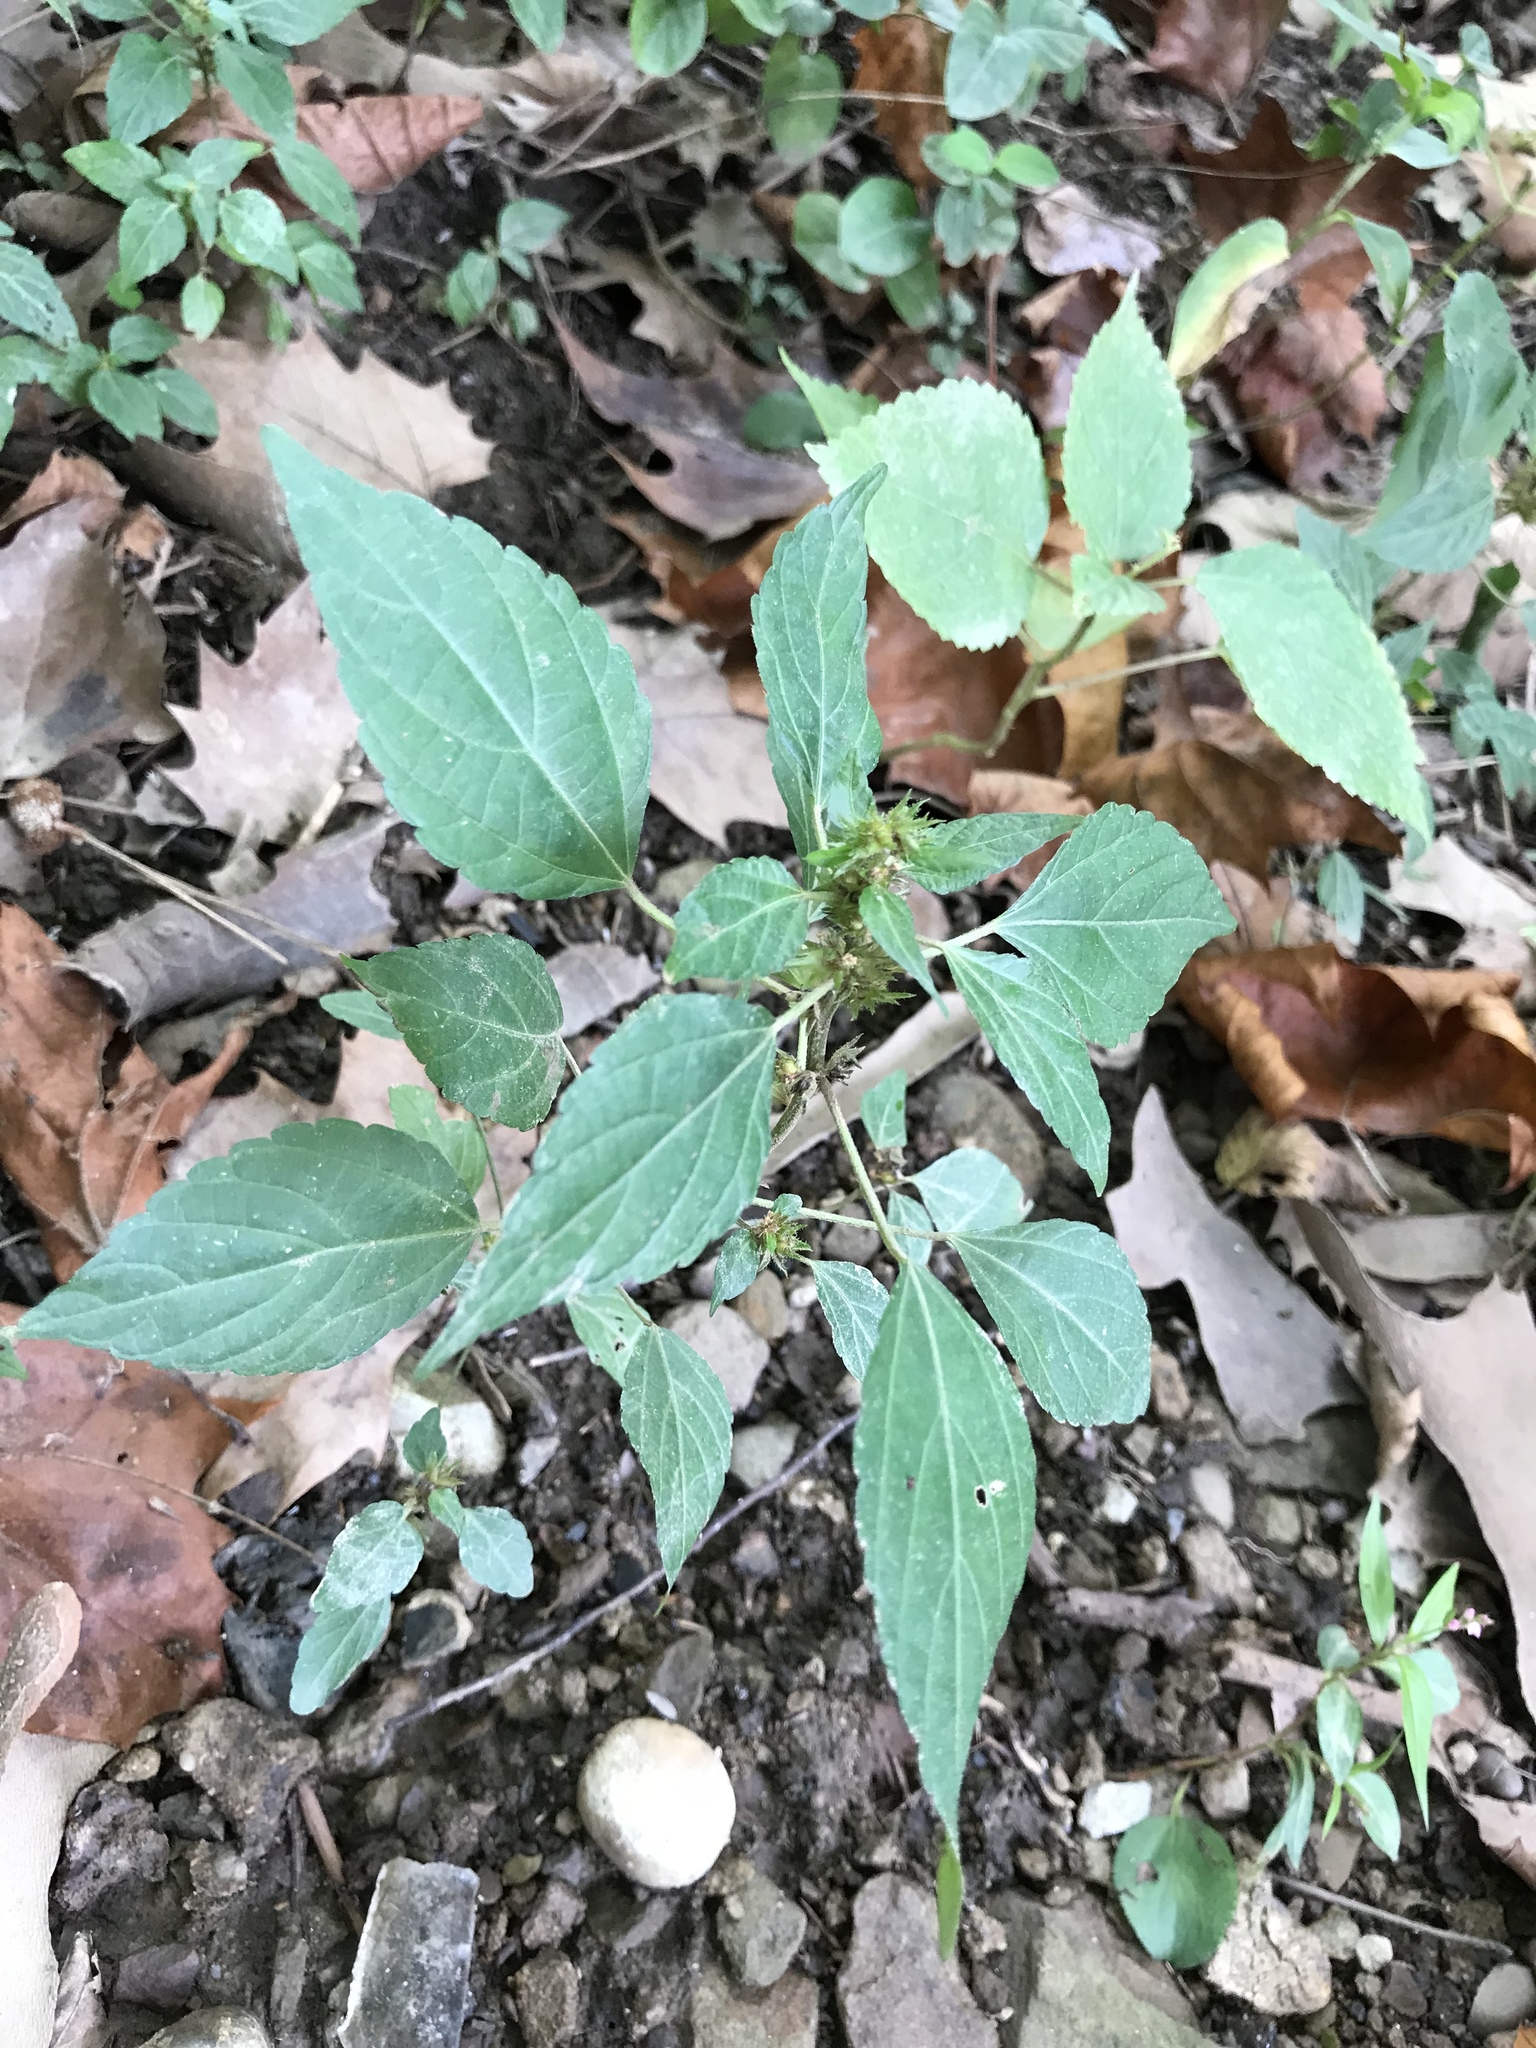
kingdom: Plantae
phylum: Tracheophyta
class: Magnoliopsida
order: Malpighiales
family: Euphorbiaceae
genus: Acalypha
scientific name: Acalypha rhomboidea
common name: Rhombic copperleaf
